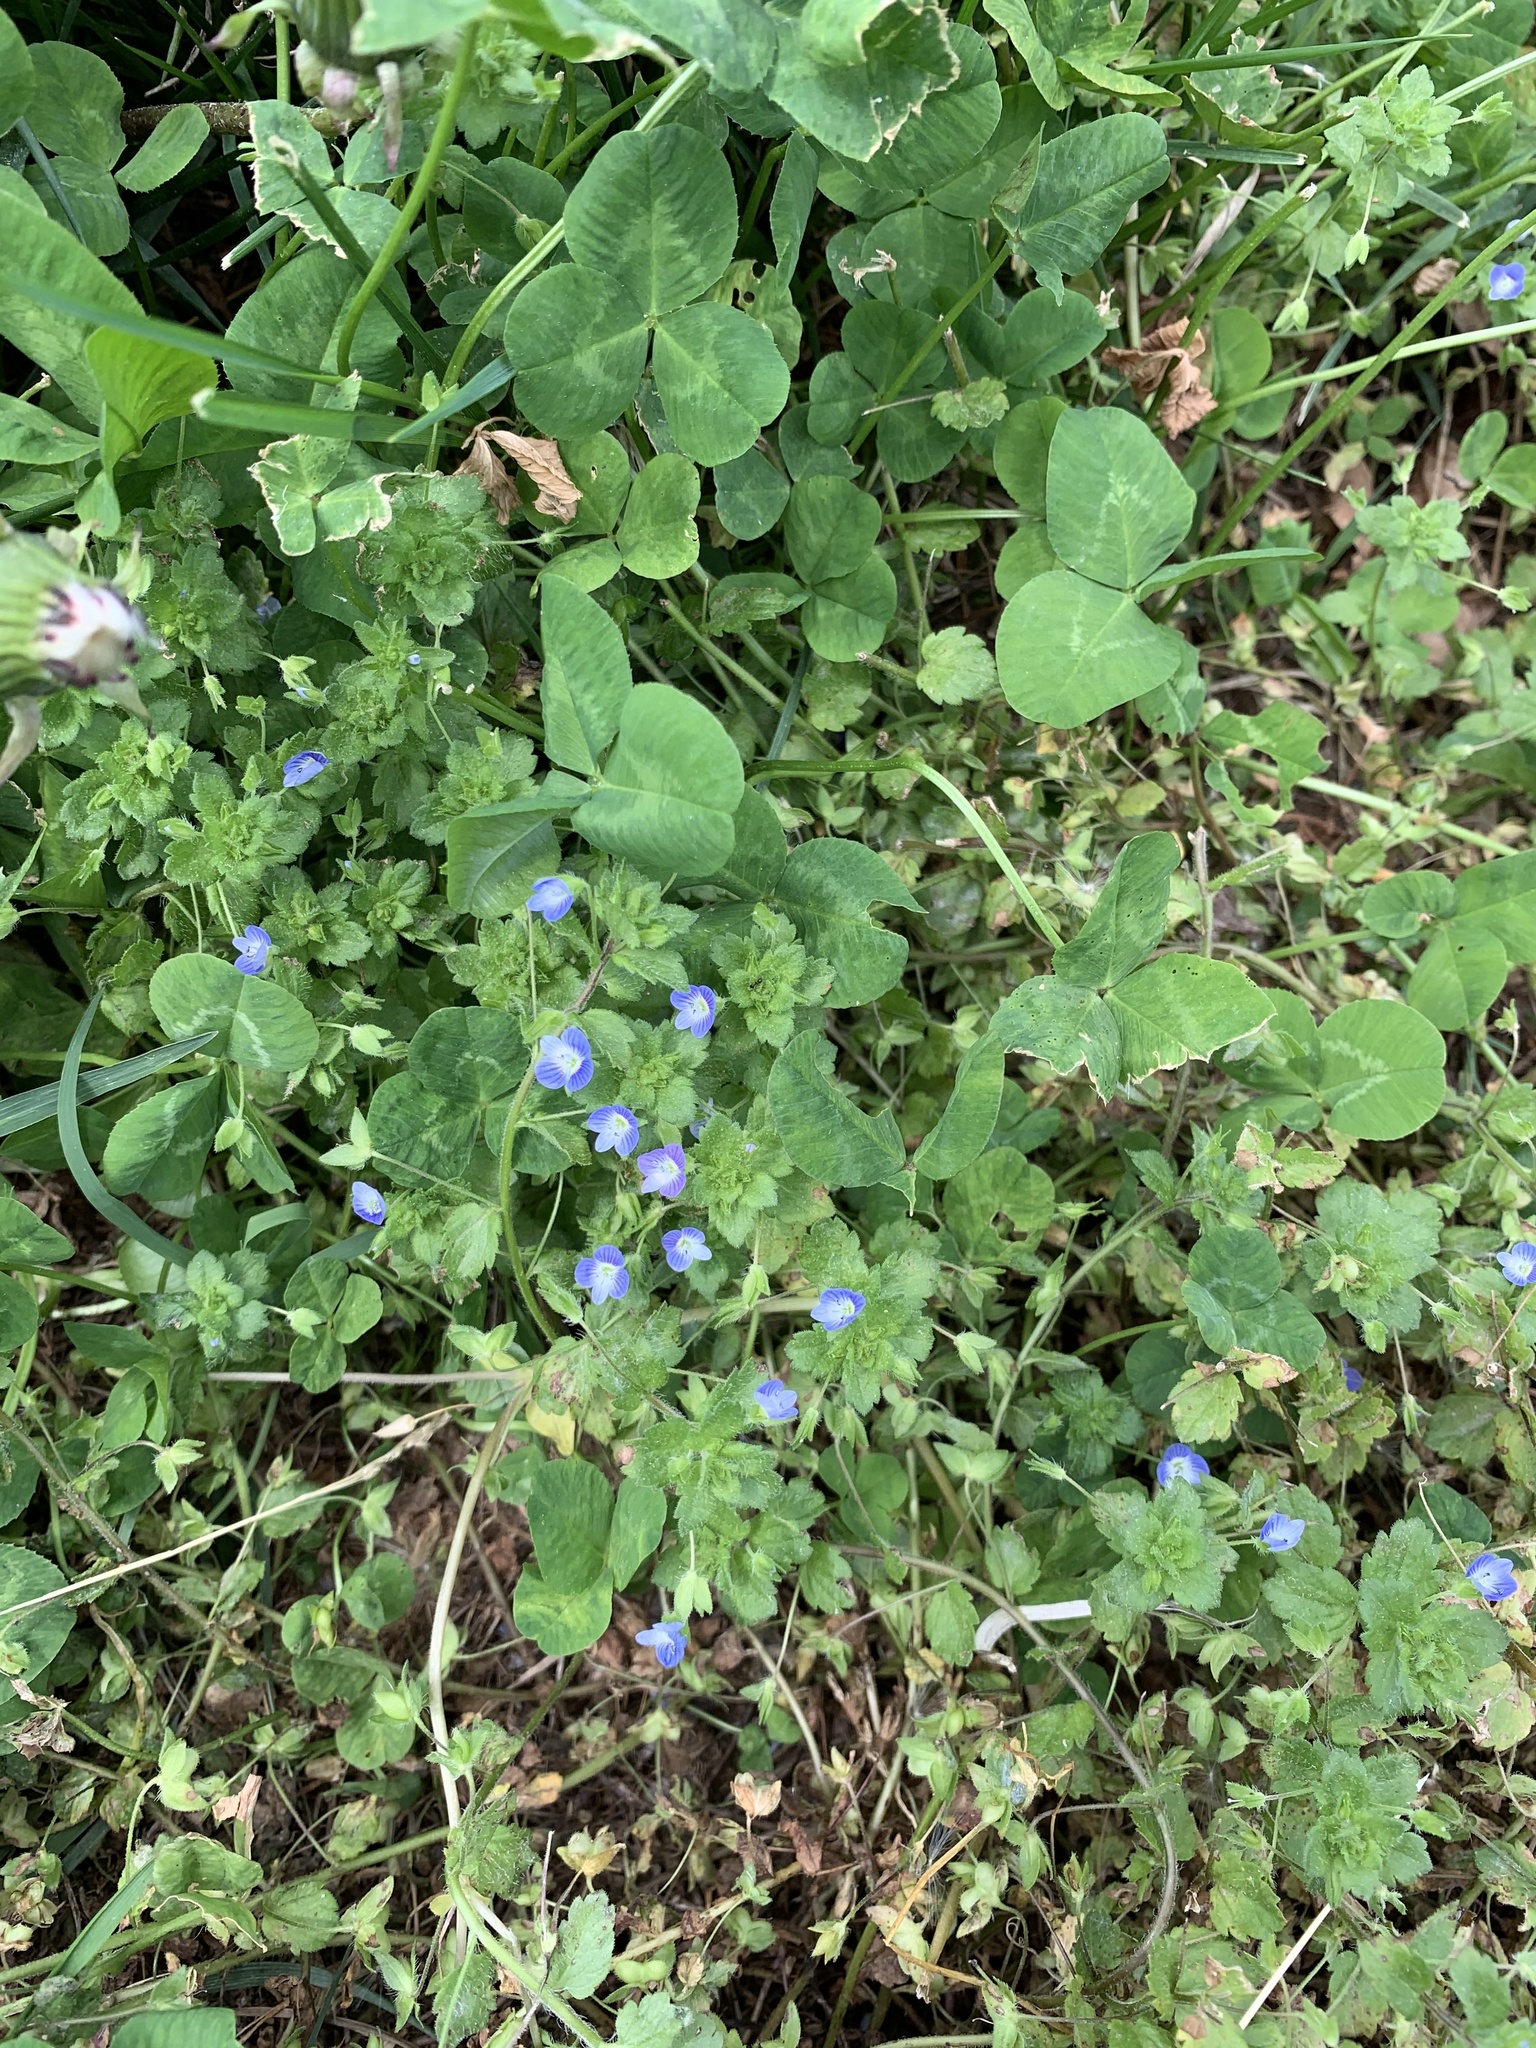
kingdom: Plantae
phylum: Tracheophyta
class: Magnoliopsida
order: Lamiales
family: Plantaginaceae
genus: Veronica
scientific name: Veronica persica
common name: Common field-speedwell
